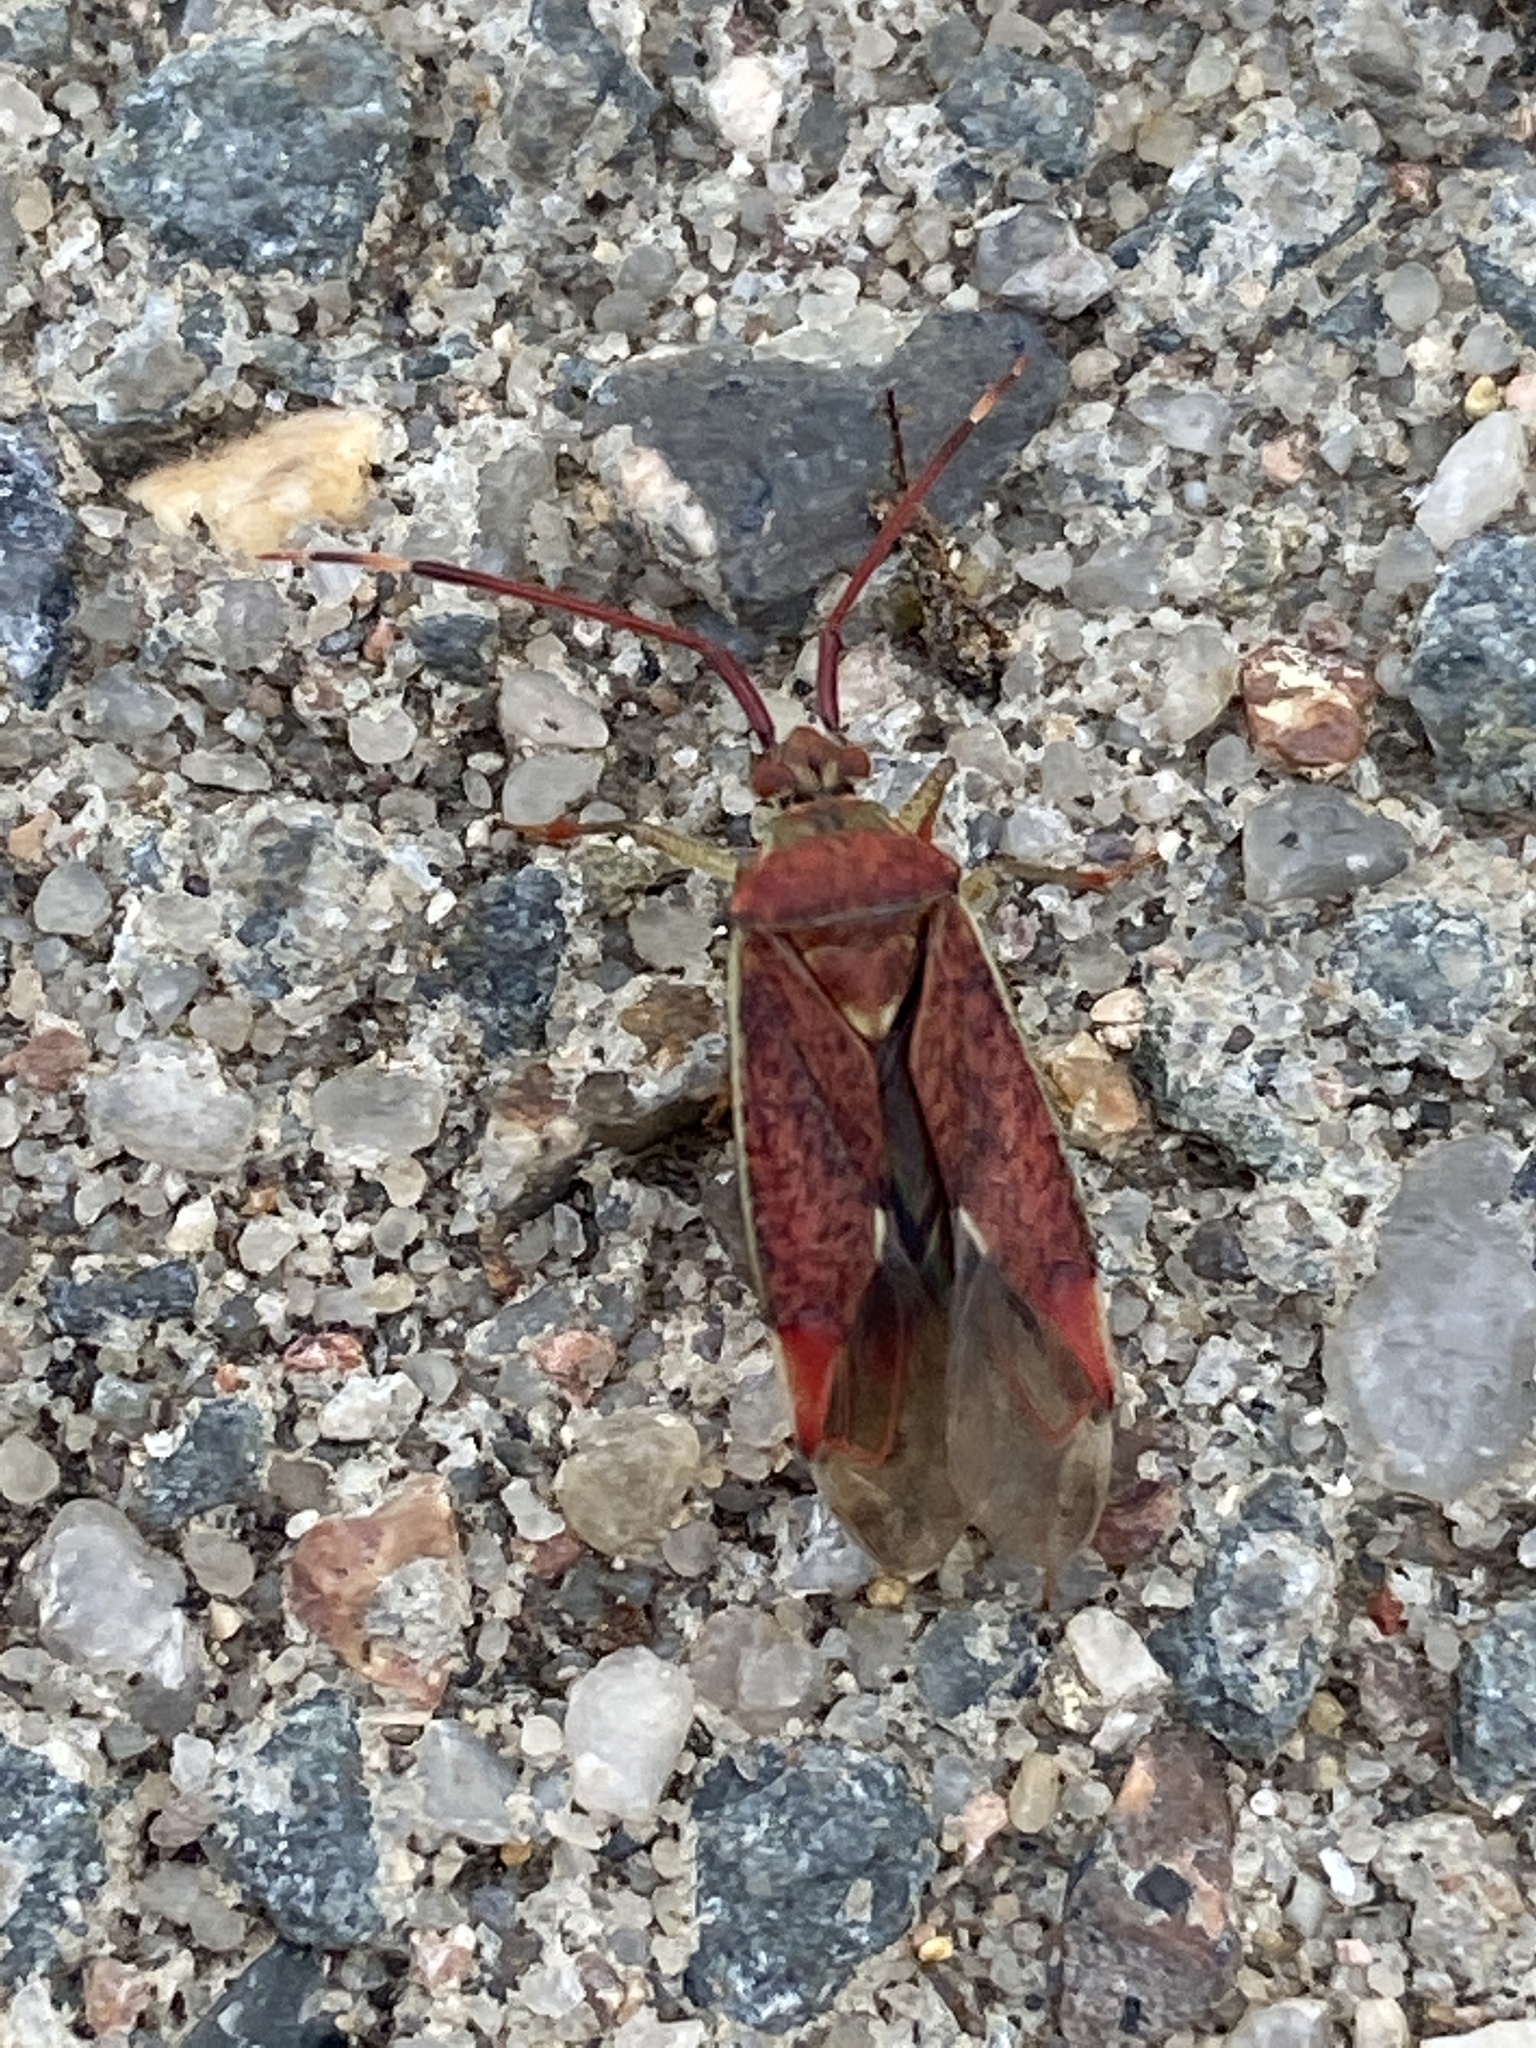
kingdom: Animalia
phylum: Arthropoda
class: Insecta
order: Hemiptera
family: Miridae
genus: Pantilius
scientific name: Pantilius tunicatus
